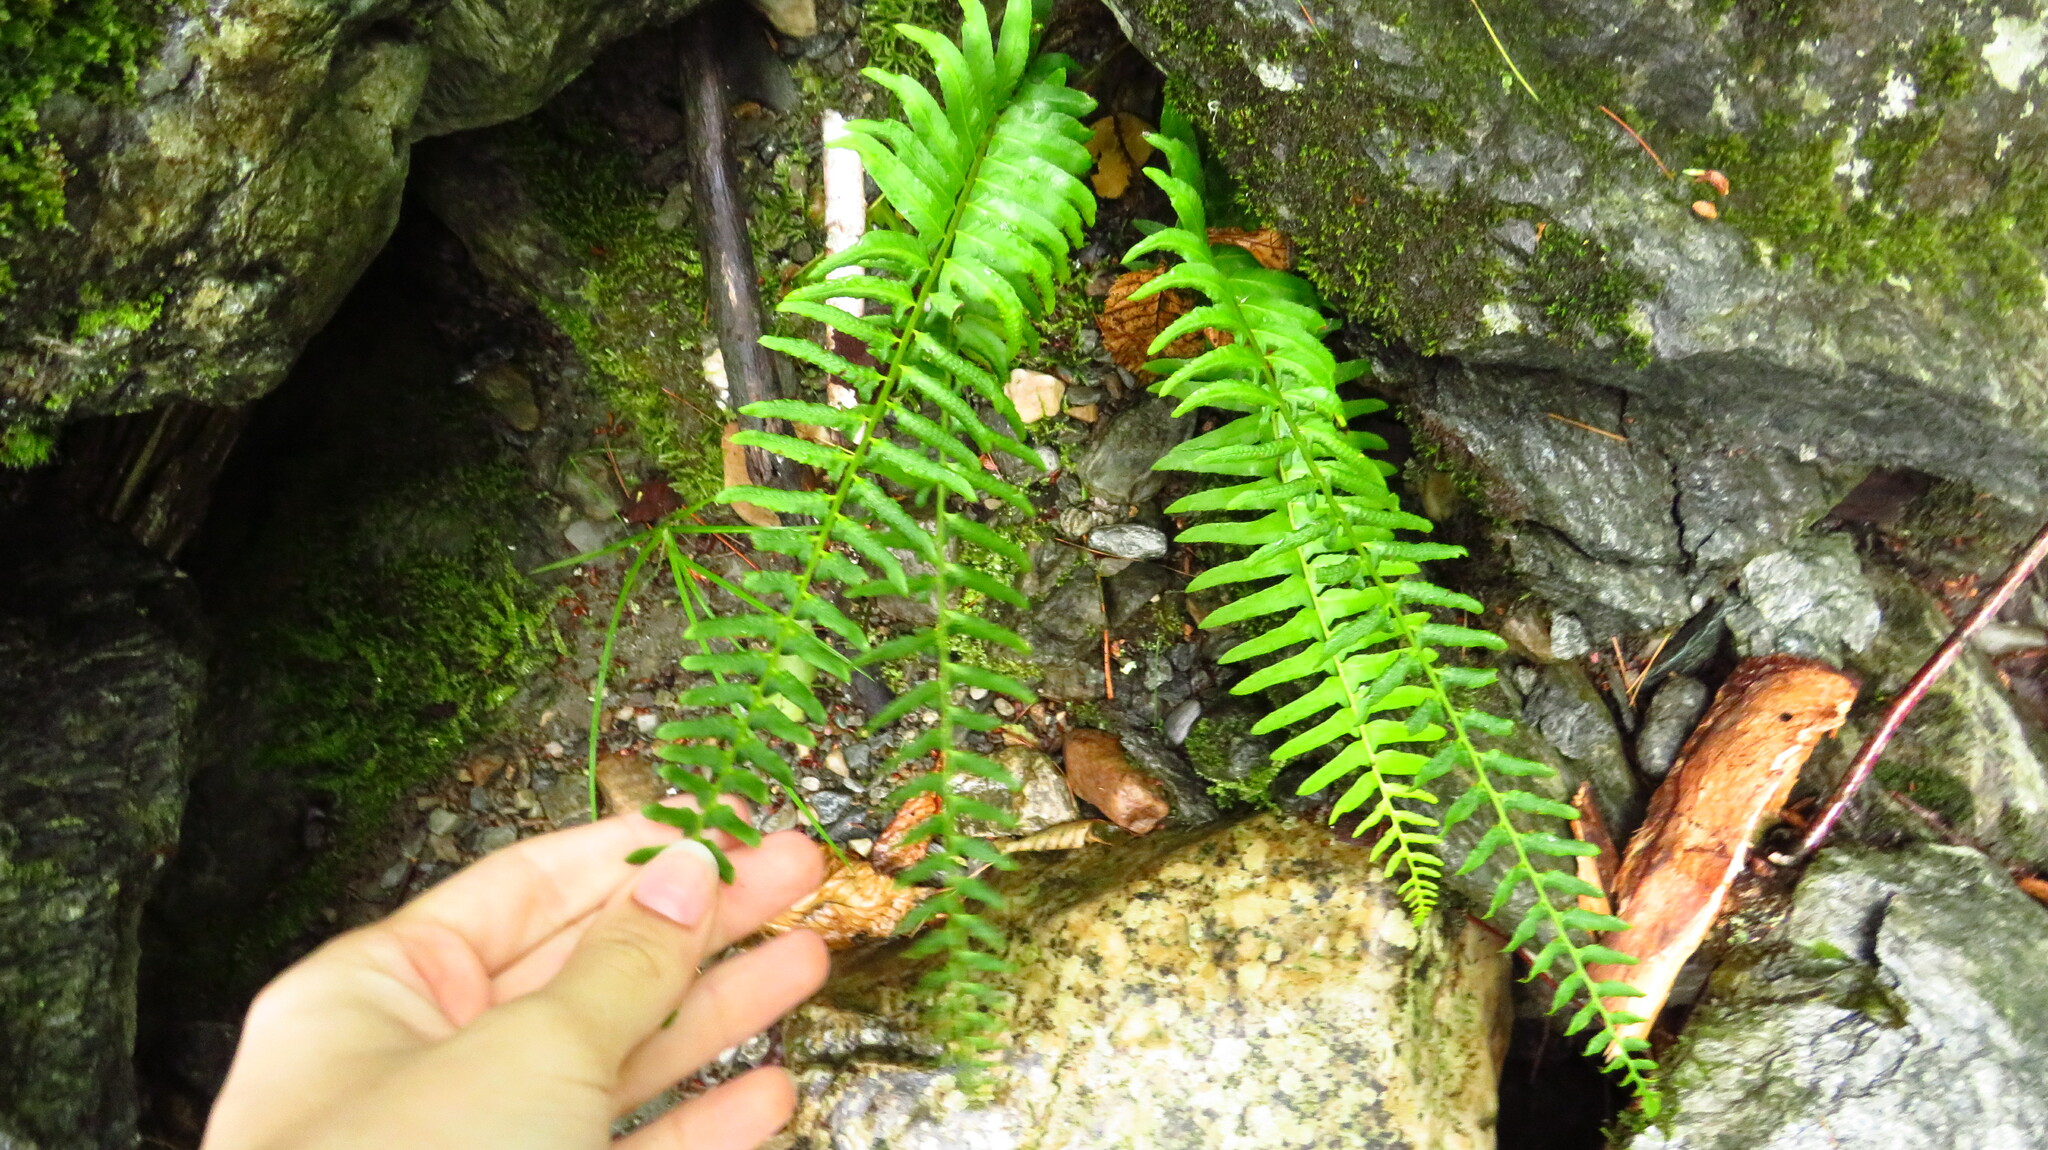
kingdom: Plantae
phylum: Tracheophyta
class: Polypodiopsida
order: Polypodiales
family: Dryopteridaceae
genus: Polystichum
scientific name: Polystichum acrostichoides
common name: Christmas fern
